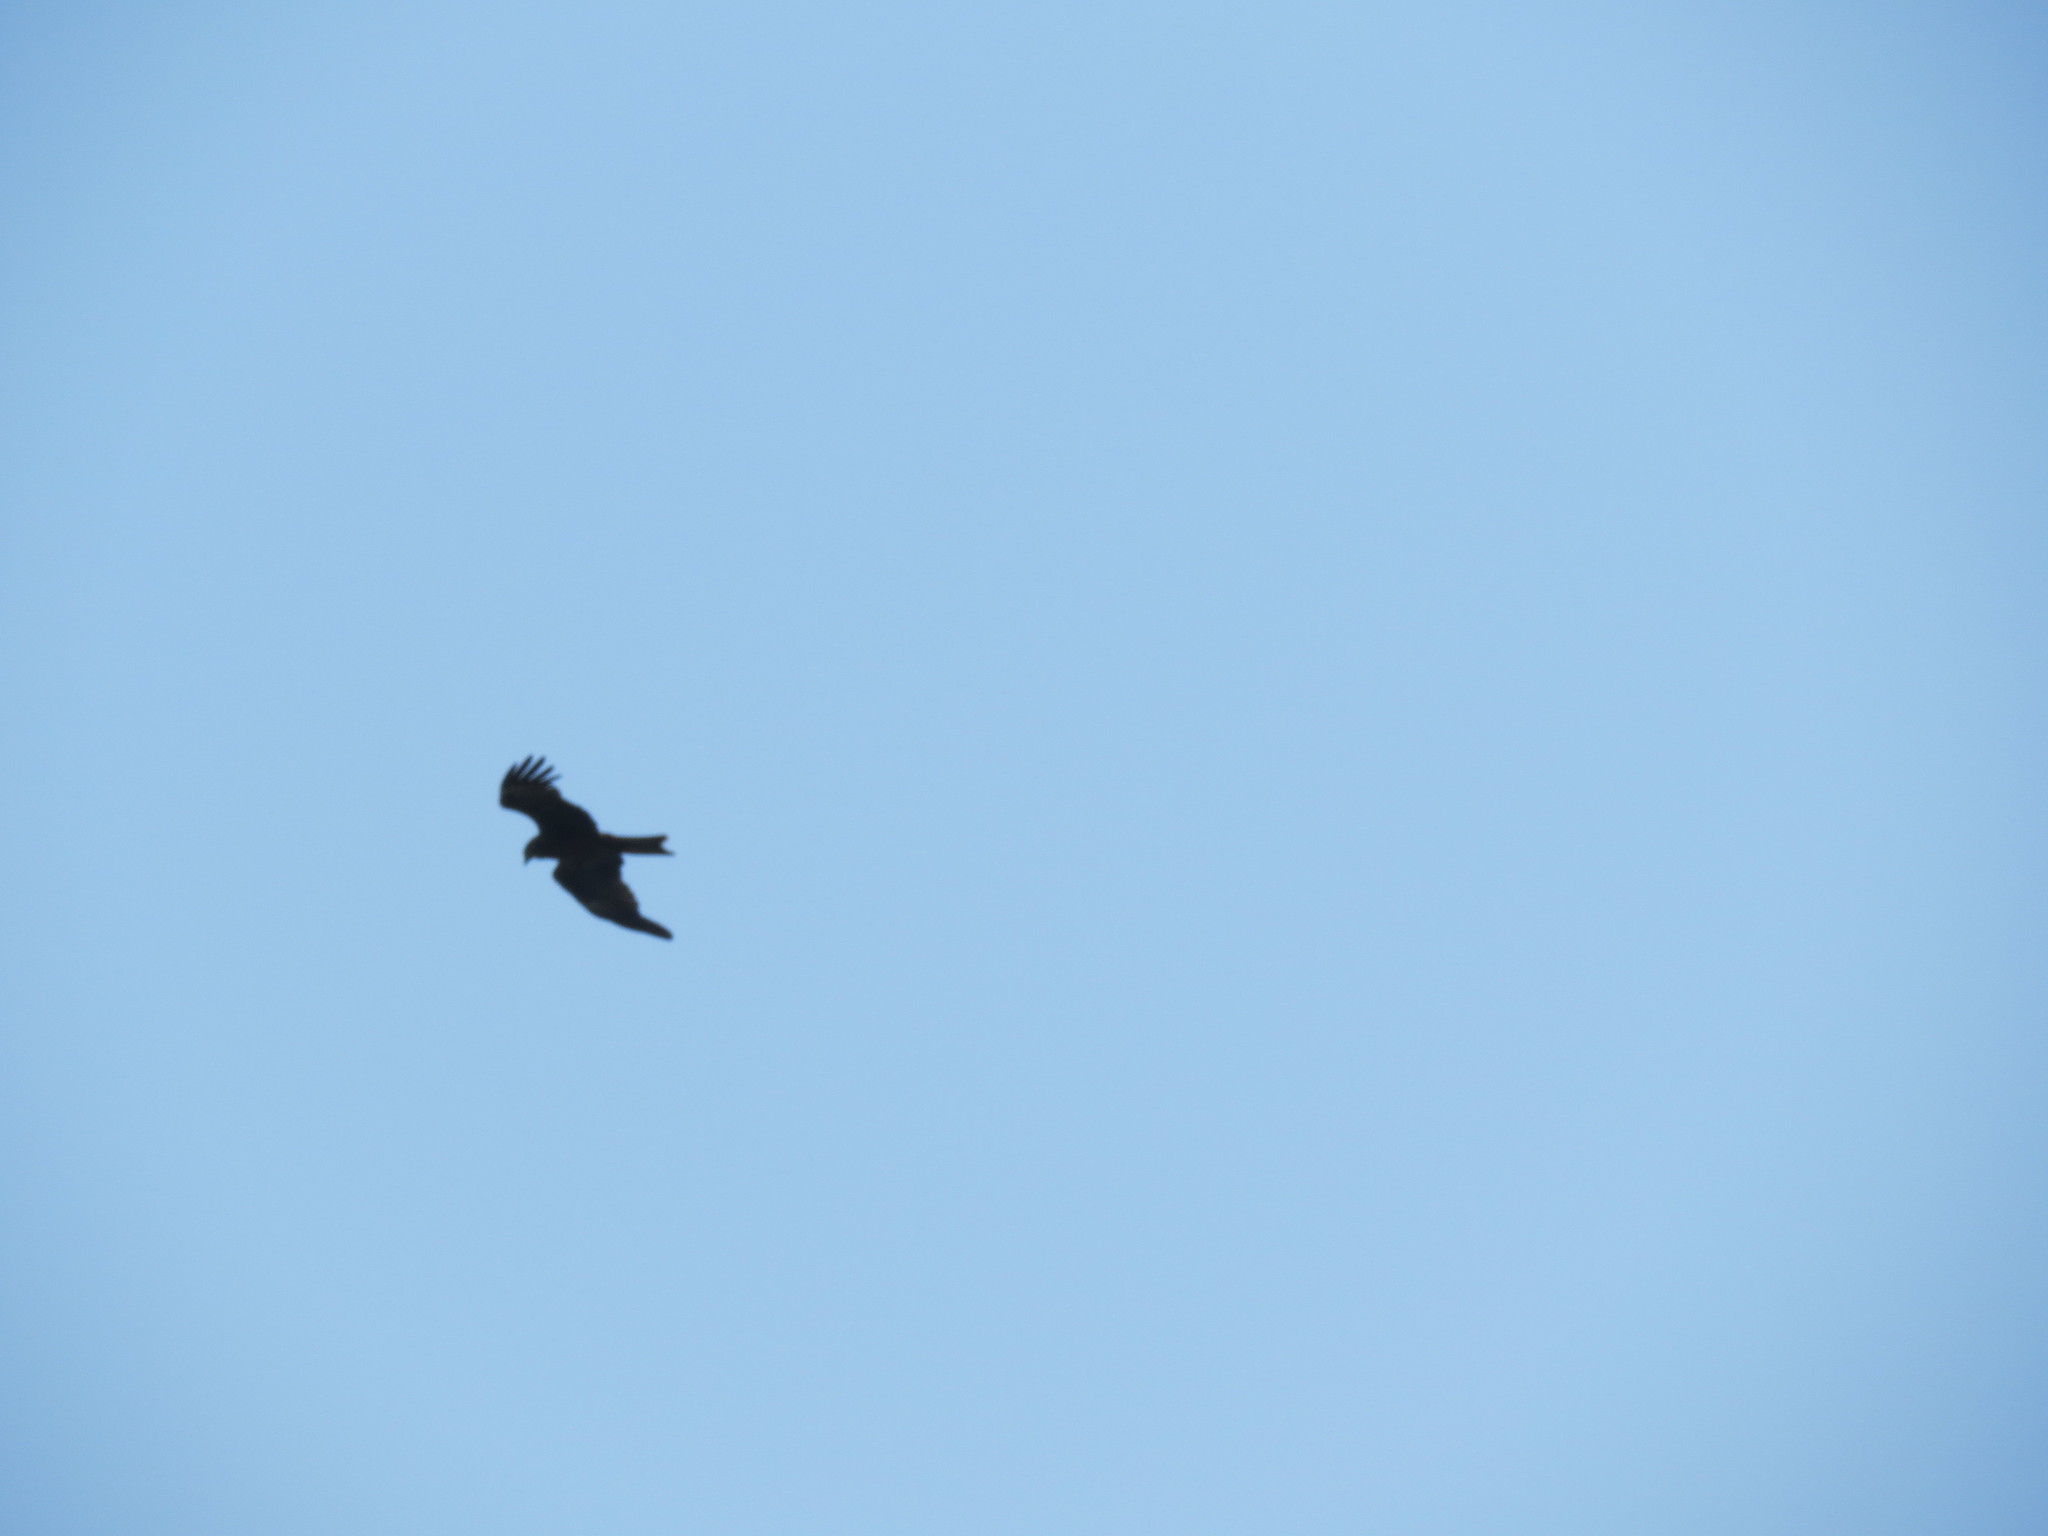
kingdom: Animalia
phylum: Chordata
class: Aves
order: Accipitriformes
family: Accipitridae
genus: Milvus
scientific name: Milvus migrans
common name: Black kite
